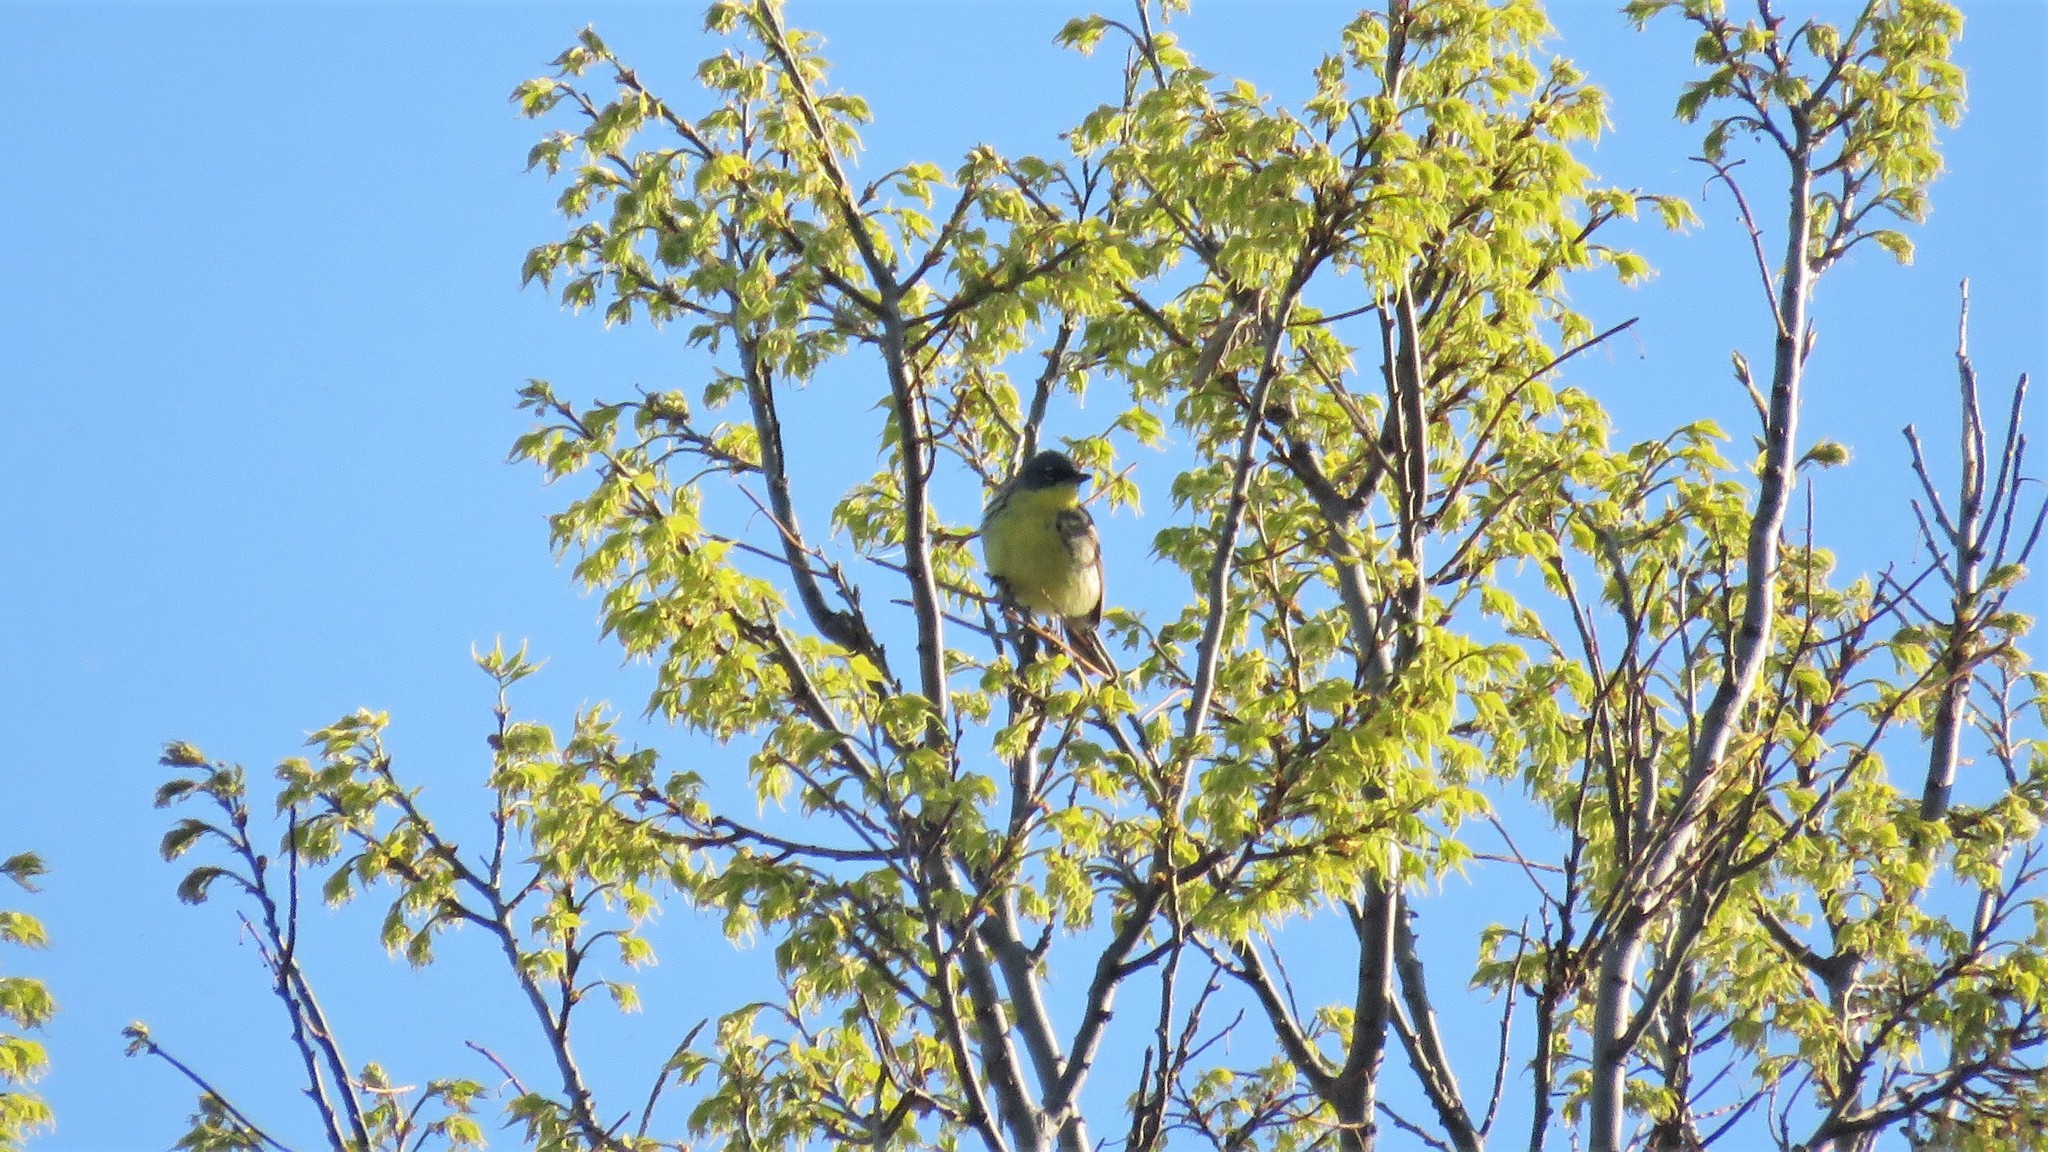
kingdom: Animalia
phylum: Chordata
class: Aves
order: Passeriformes
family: Parulidae
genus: Setophaga
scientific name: Setophaga kirtlandii
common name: Kirtland's warbler
